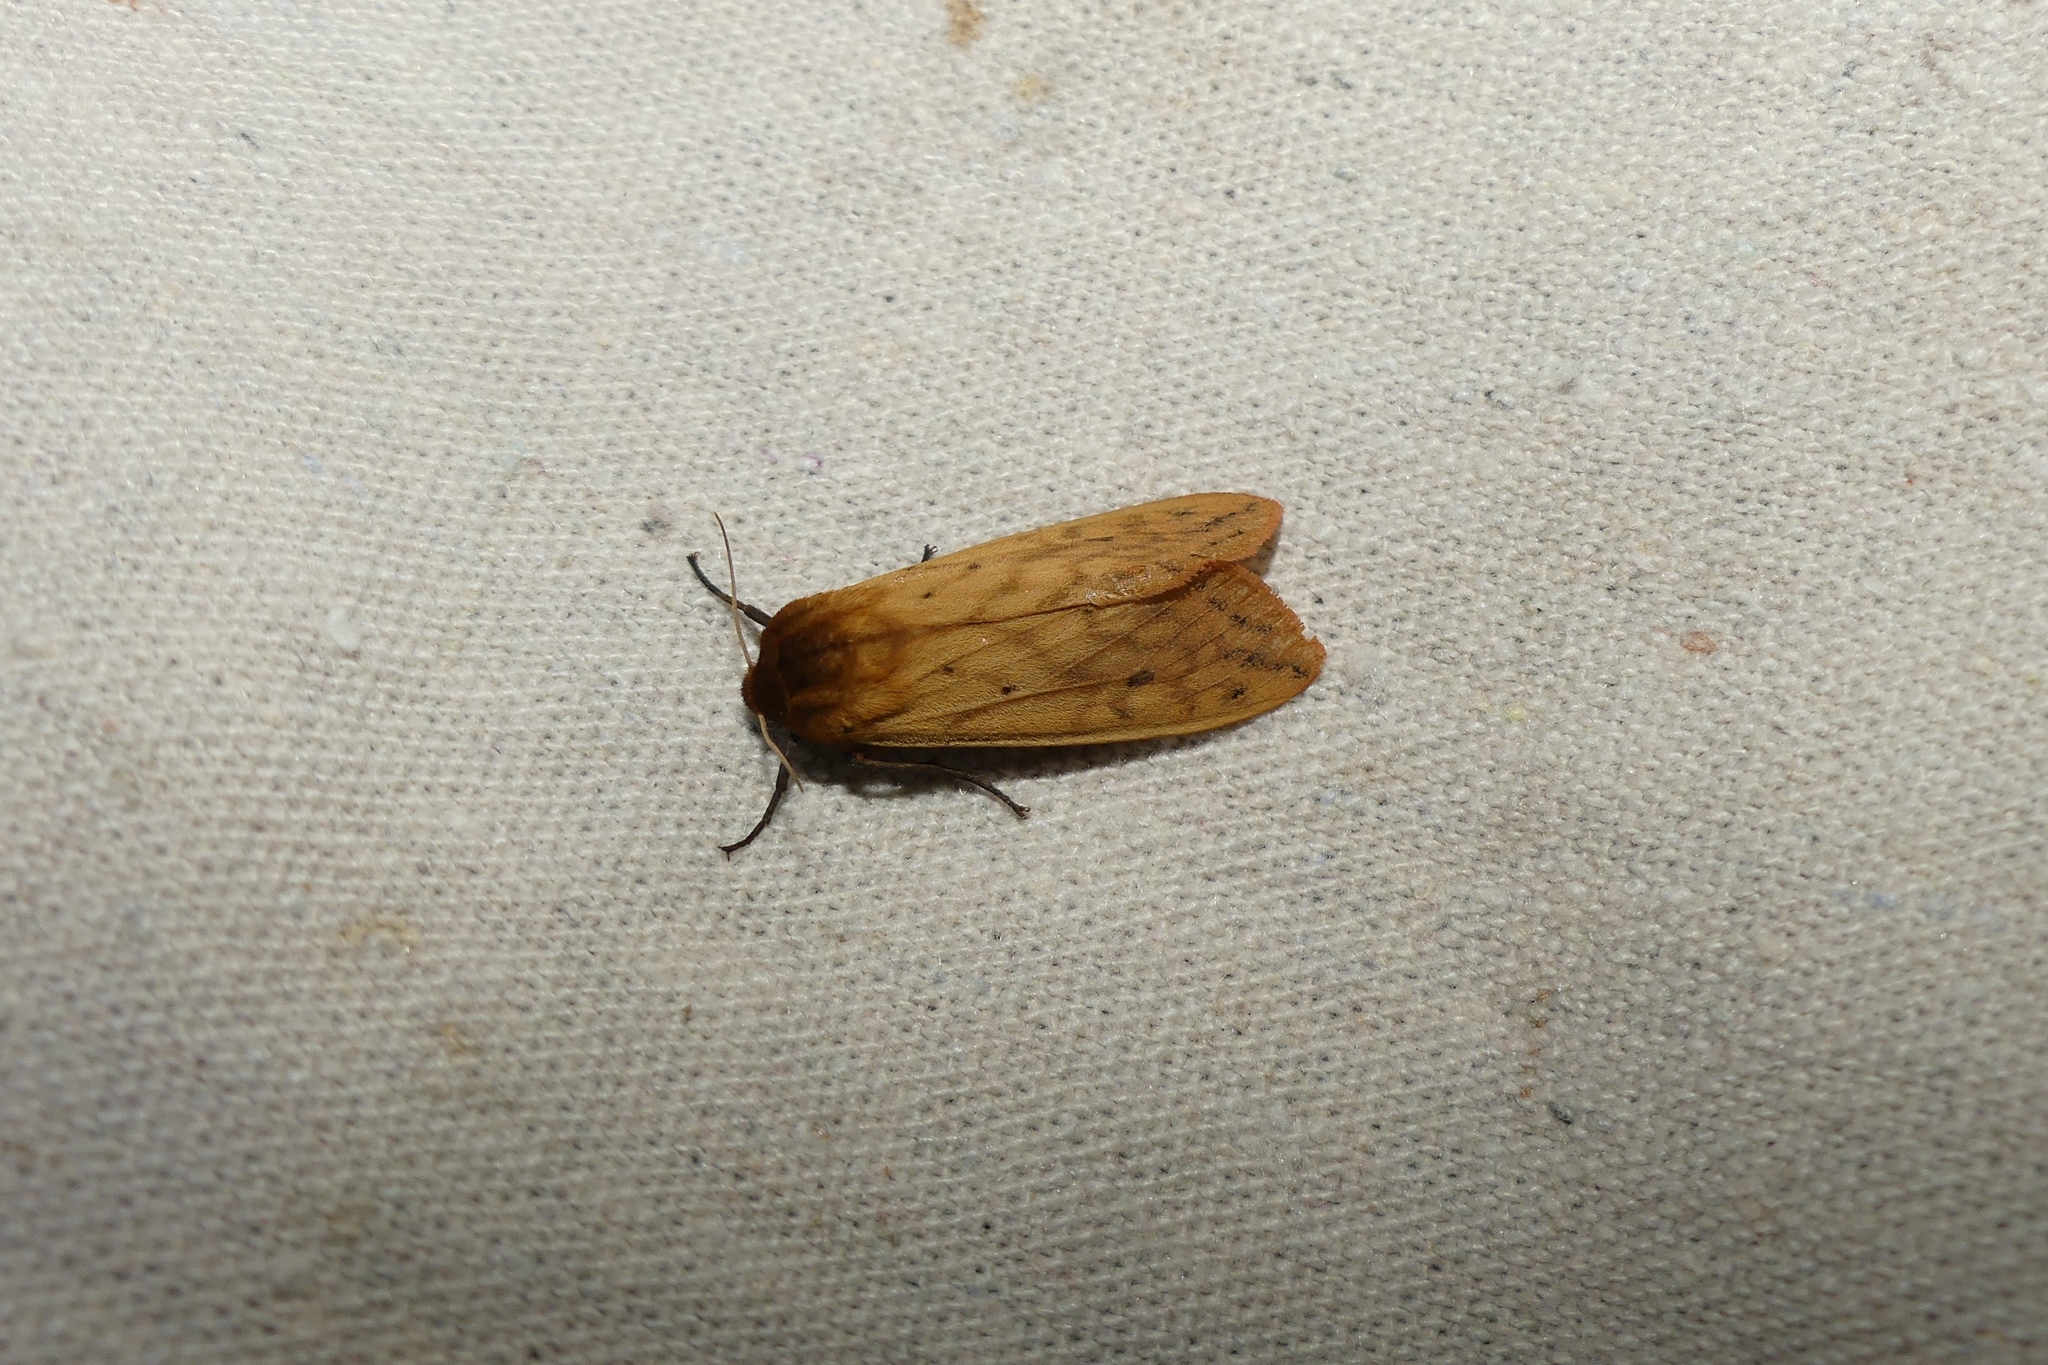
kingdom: Animalia
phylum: Arthropoda
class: Insecta
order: Lepidoptera
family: Erebidae
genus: Pyrrharctia
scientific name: Pyrrharctia isabella
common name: Isabella tiger moth
